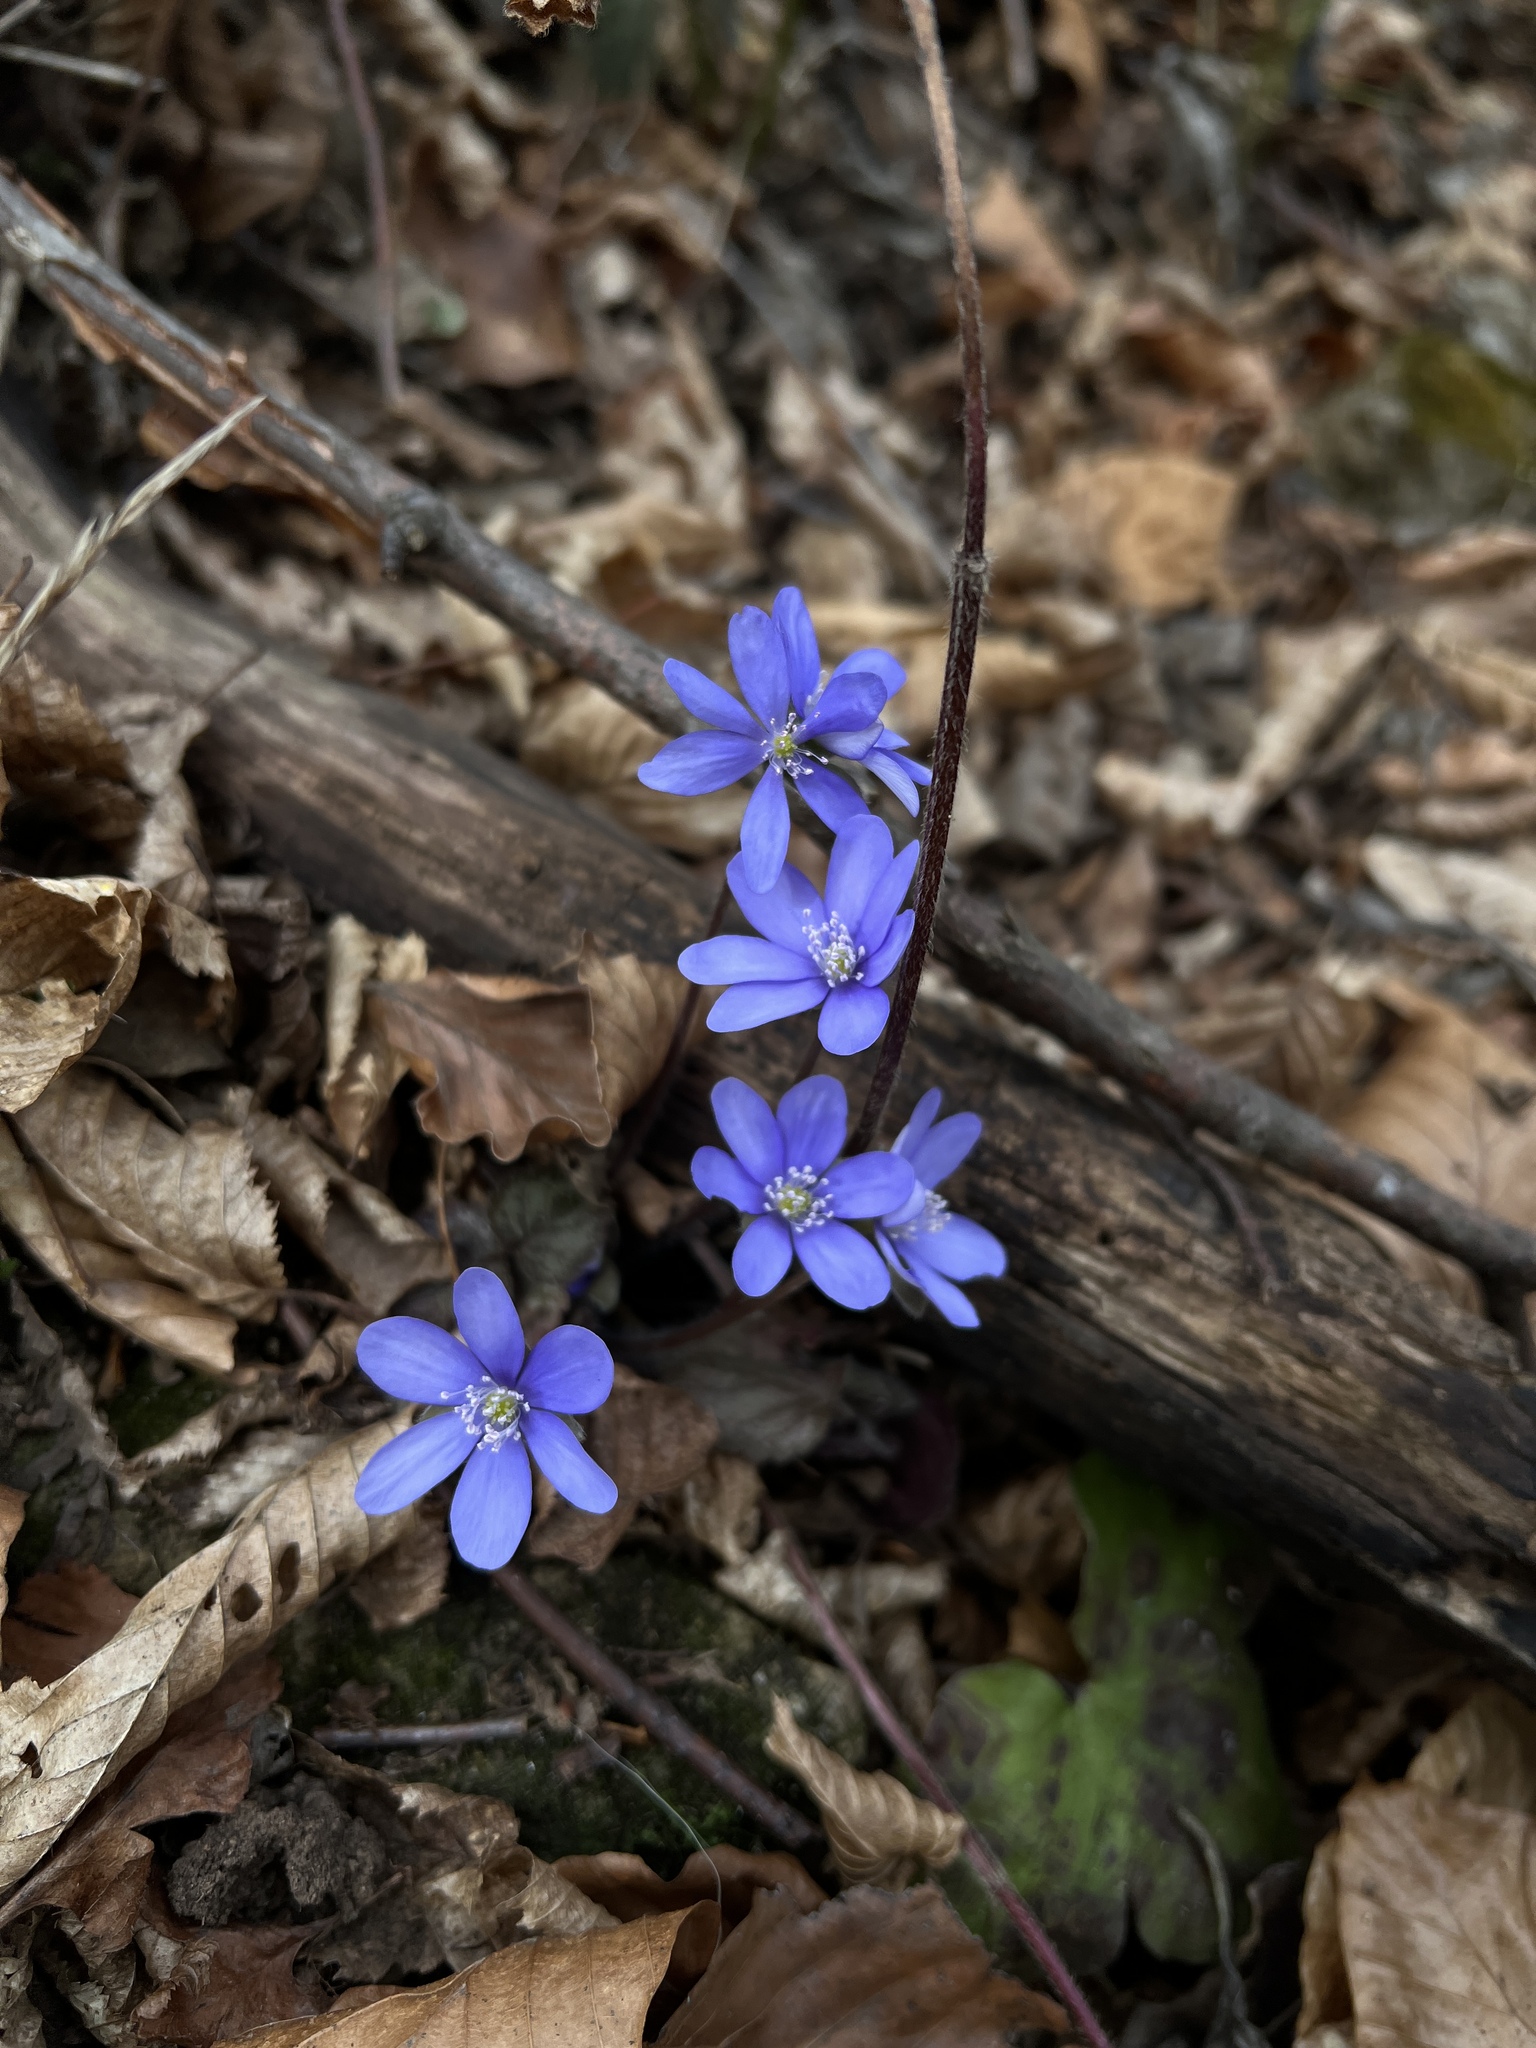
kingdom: Plantae
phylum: Tracheophyta
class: Magnoliopsida
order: Ranunculales
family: Ranunculaceae
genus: Hepatica
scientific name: Hepatica nobilis
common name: Liverleaf
